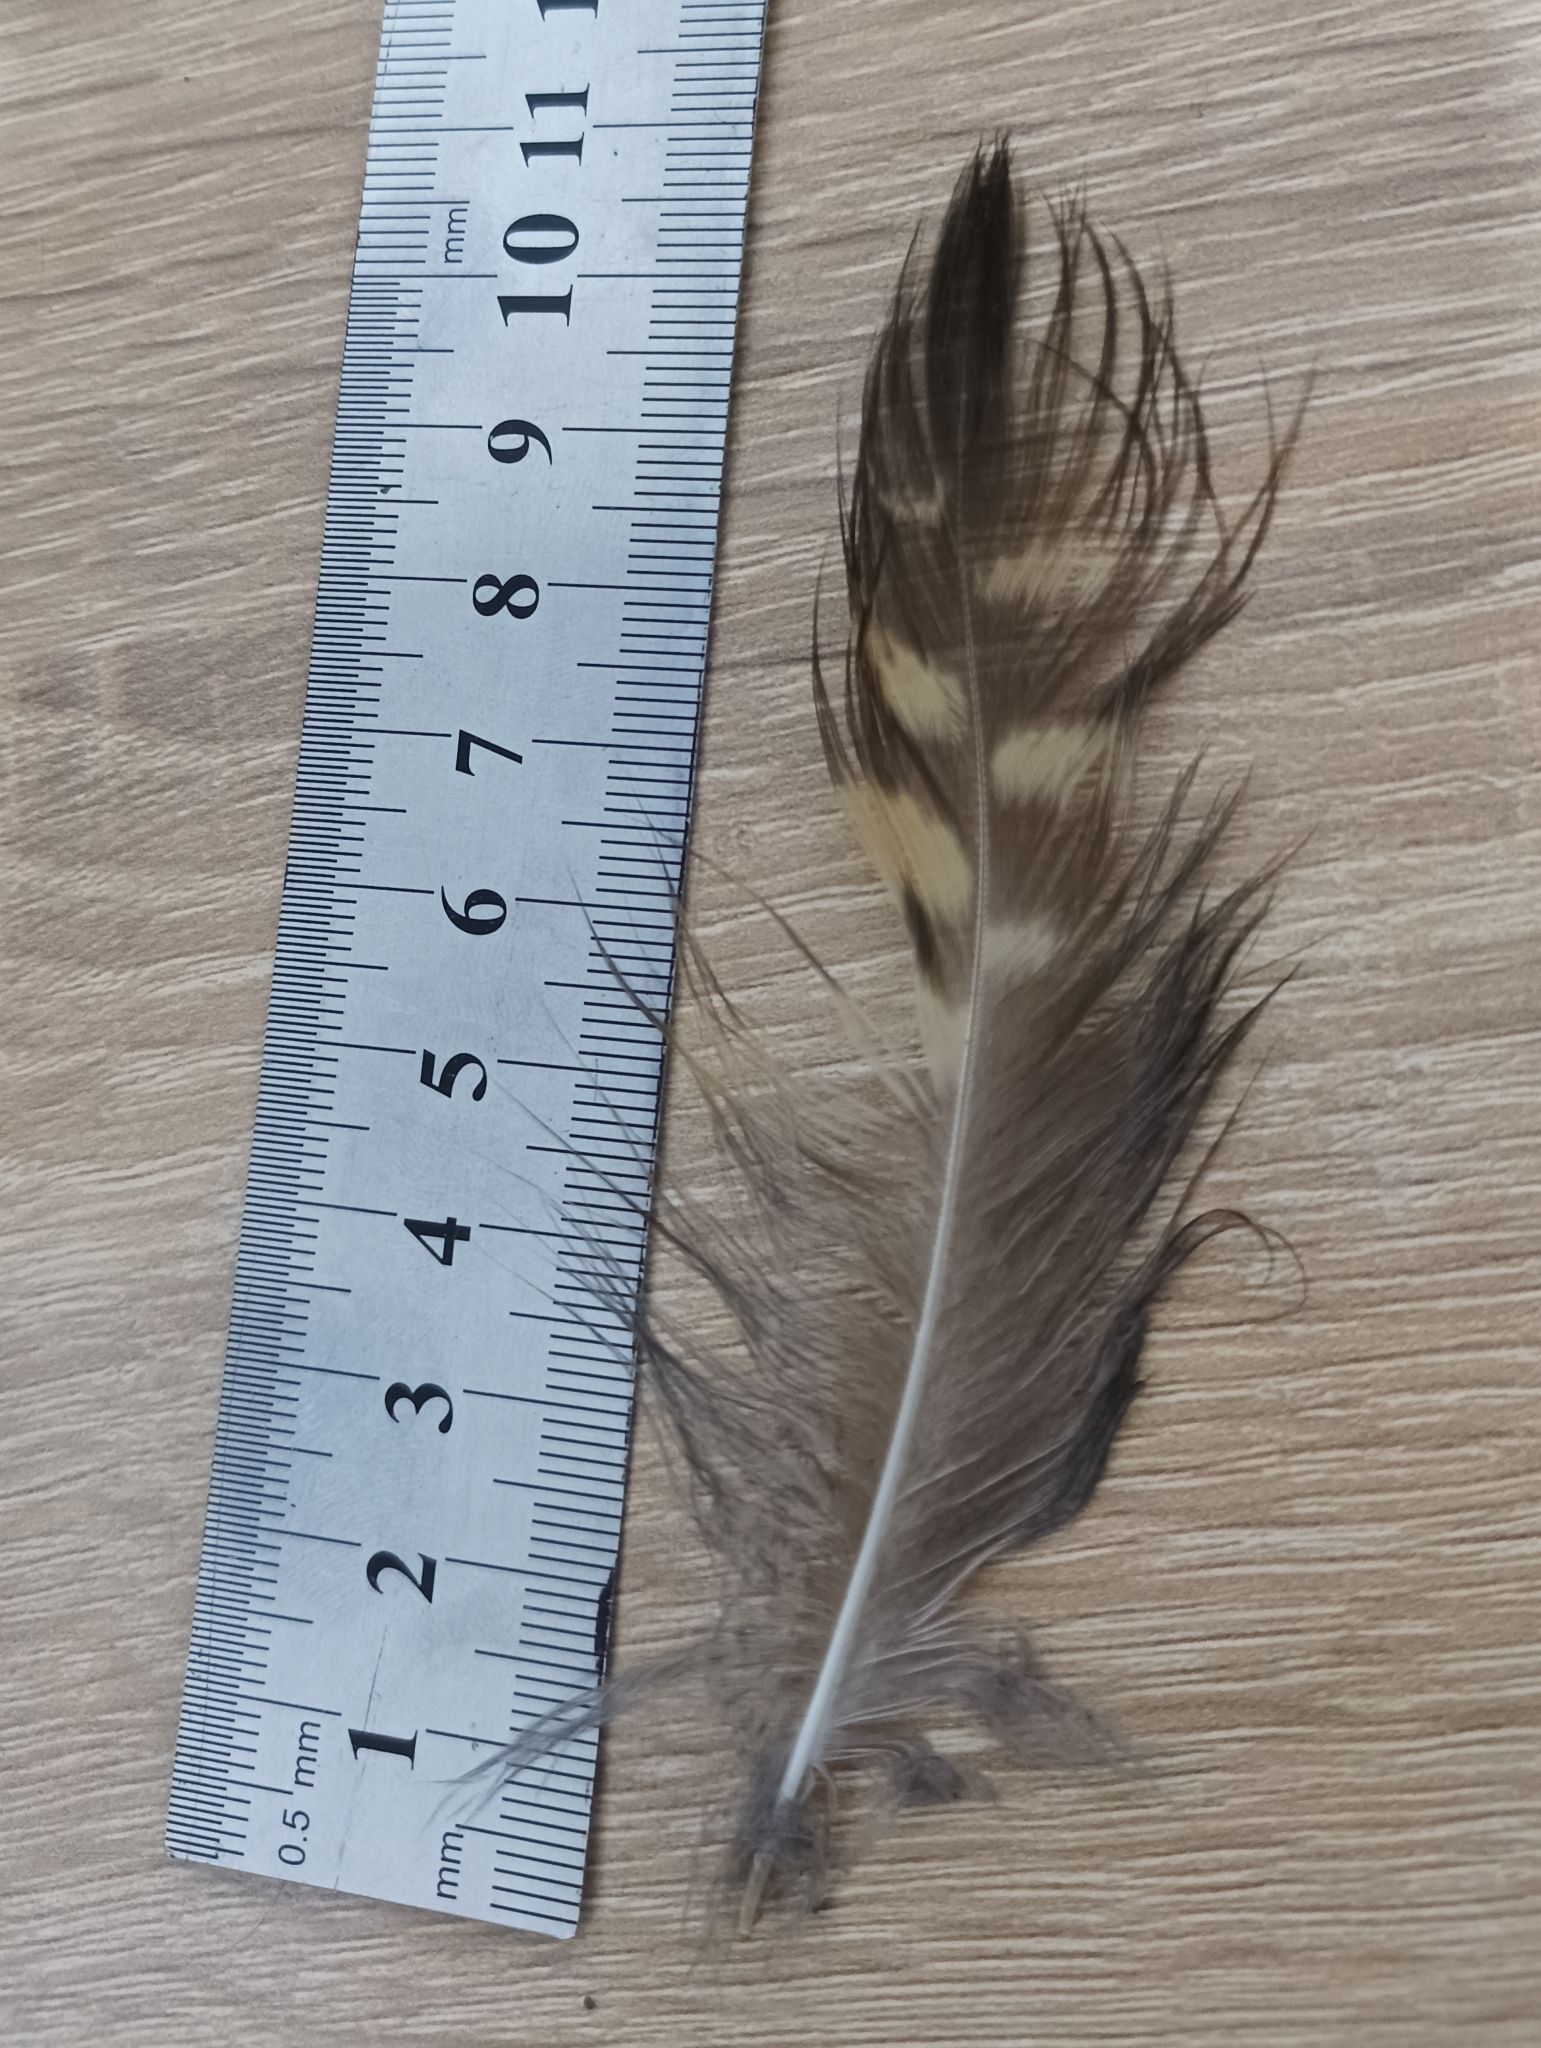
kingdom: Animalia
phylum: Chordata
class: Aves
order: Strigiformes
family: Strigidae
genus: Asio
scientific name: Asio stygius
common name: Stygian owl
